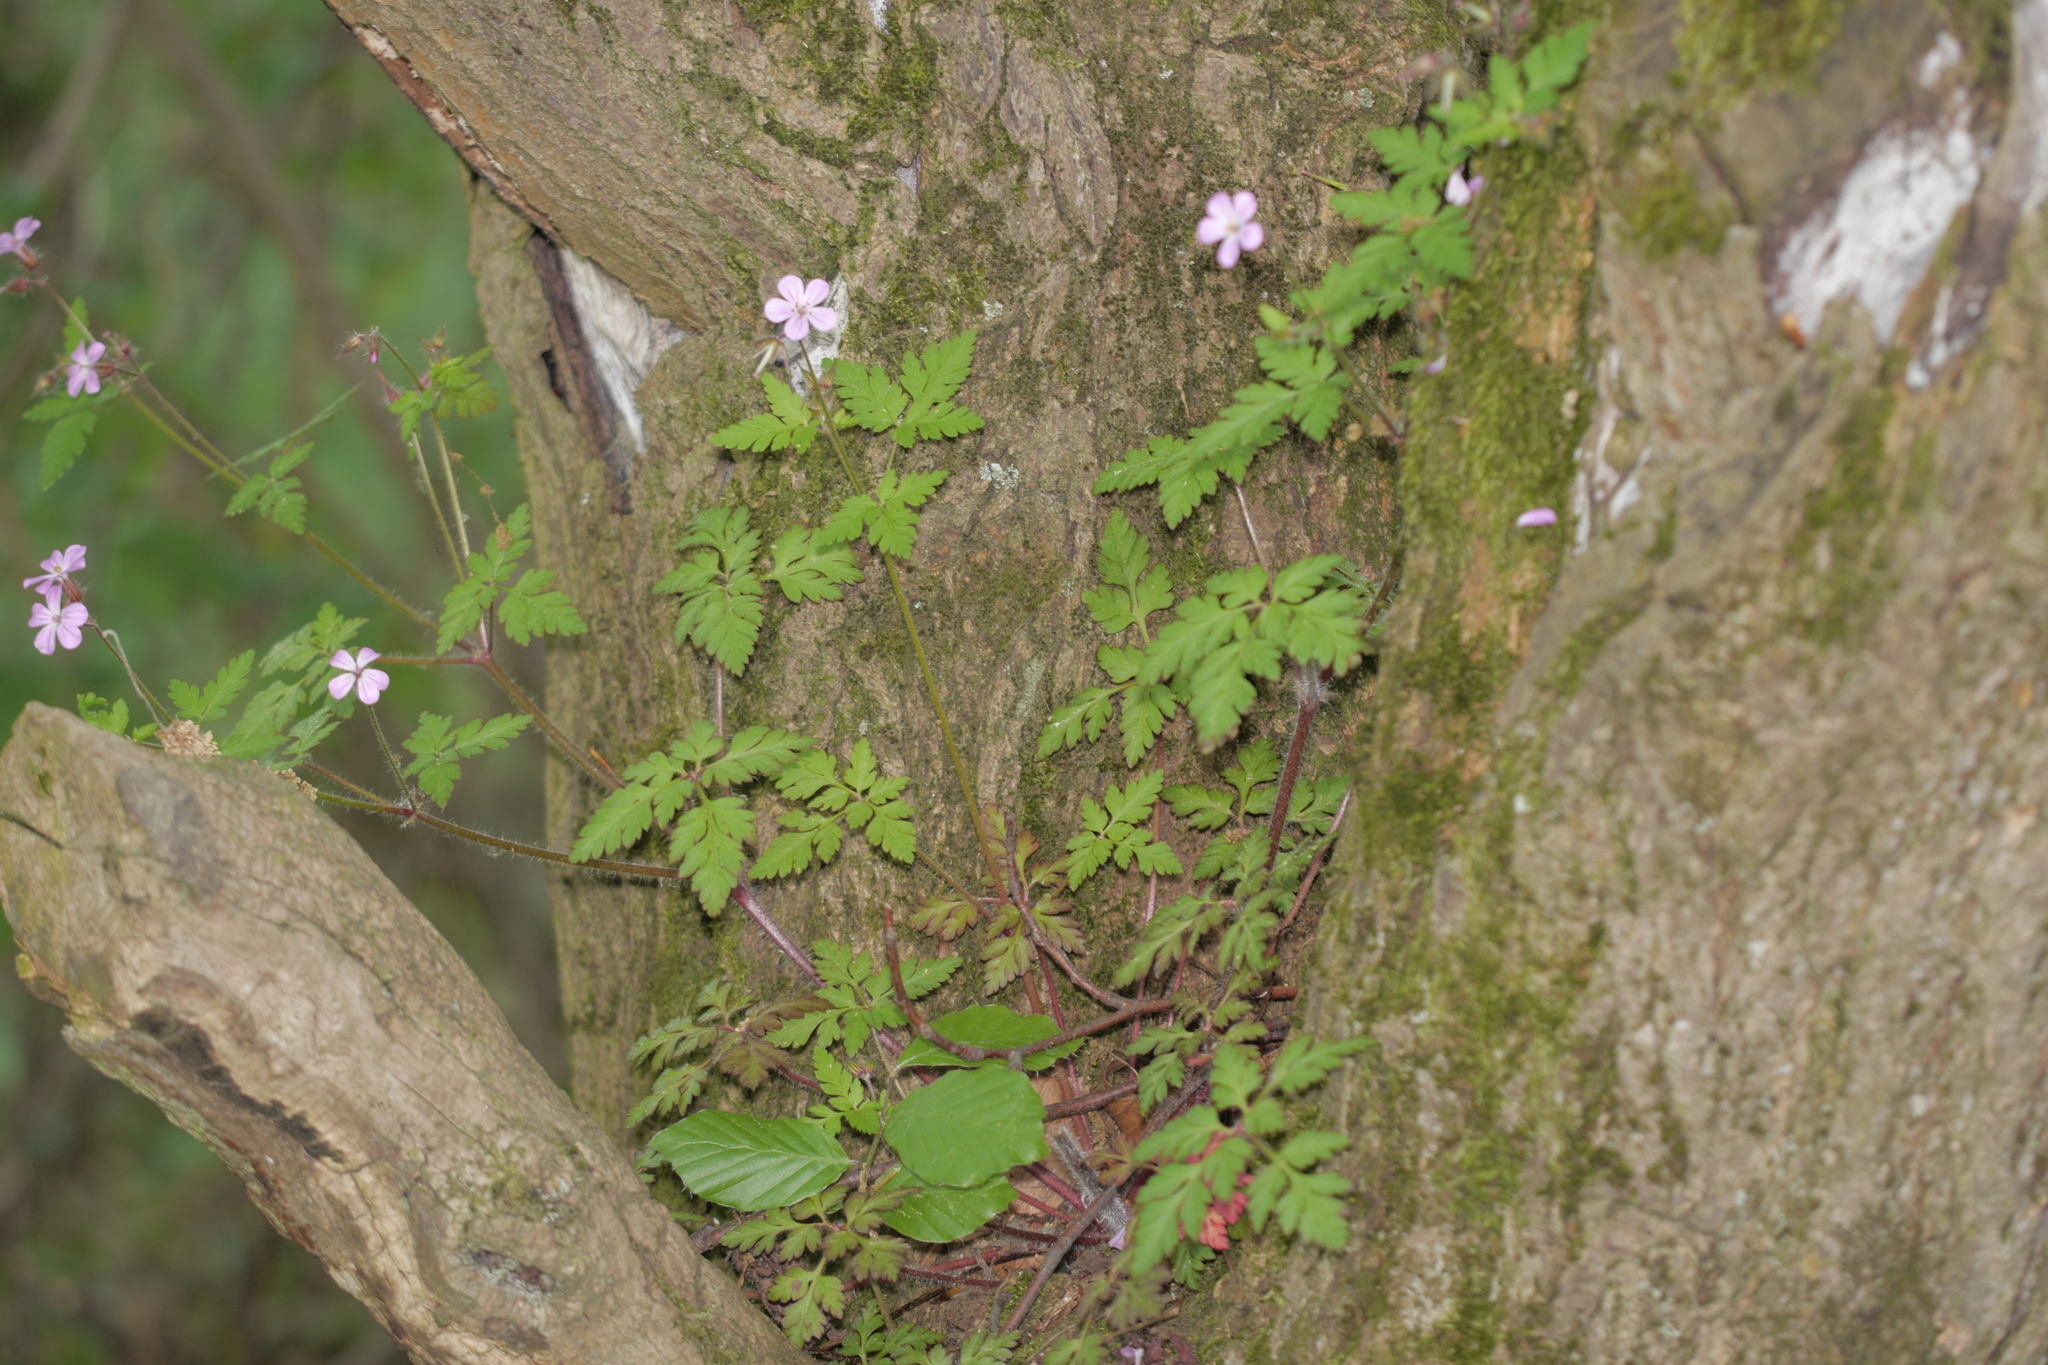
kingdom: Plantae
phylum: Tracheophyta
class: Magnoliopsida
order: Geraniales
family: Geraniaceae
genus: Geranium
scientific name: Geranium robertianum
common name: Herb-robert
